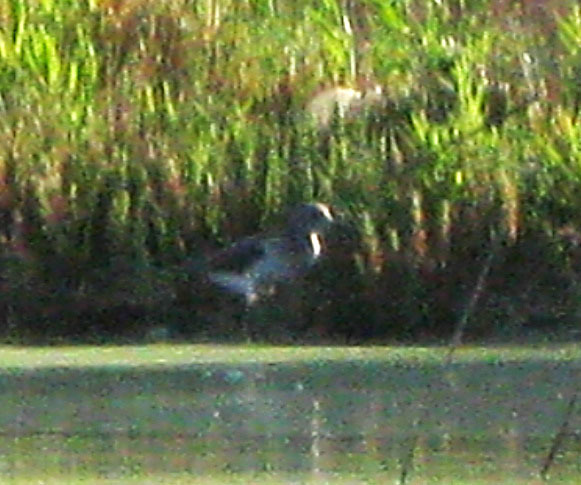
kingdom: Animalia
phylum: Chordata
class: Aves
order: Charadriiformes
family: Scolopacidae
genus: Tringa
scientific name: Tringa nebularia
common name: Common greenshank
